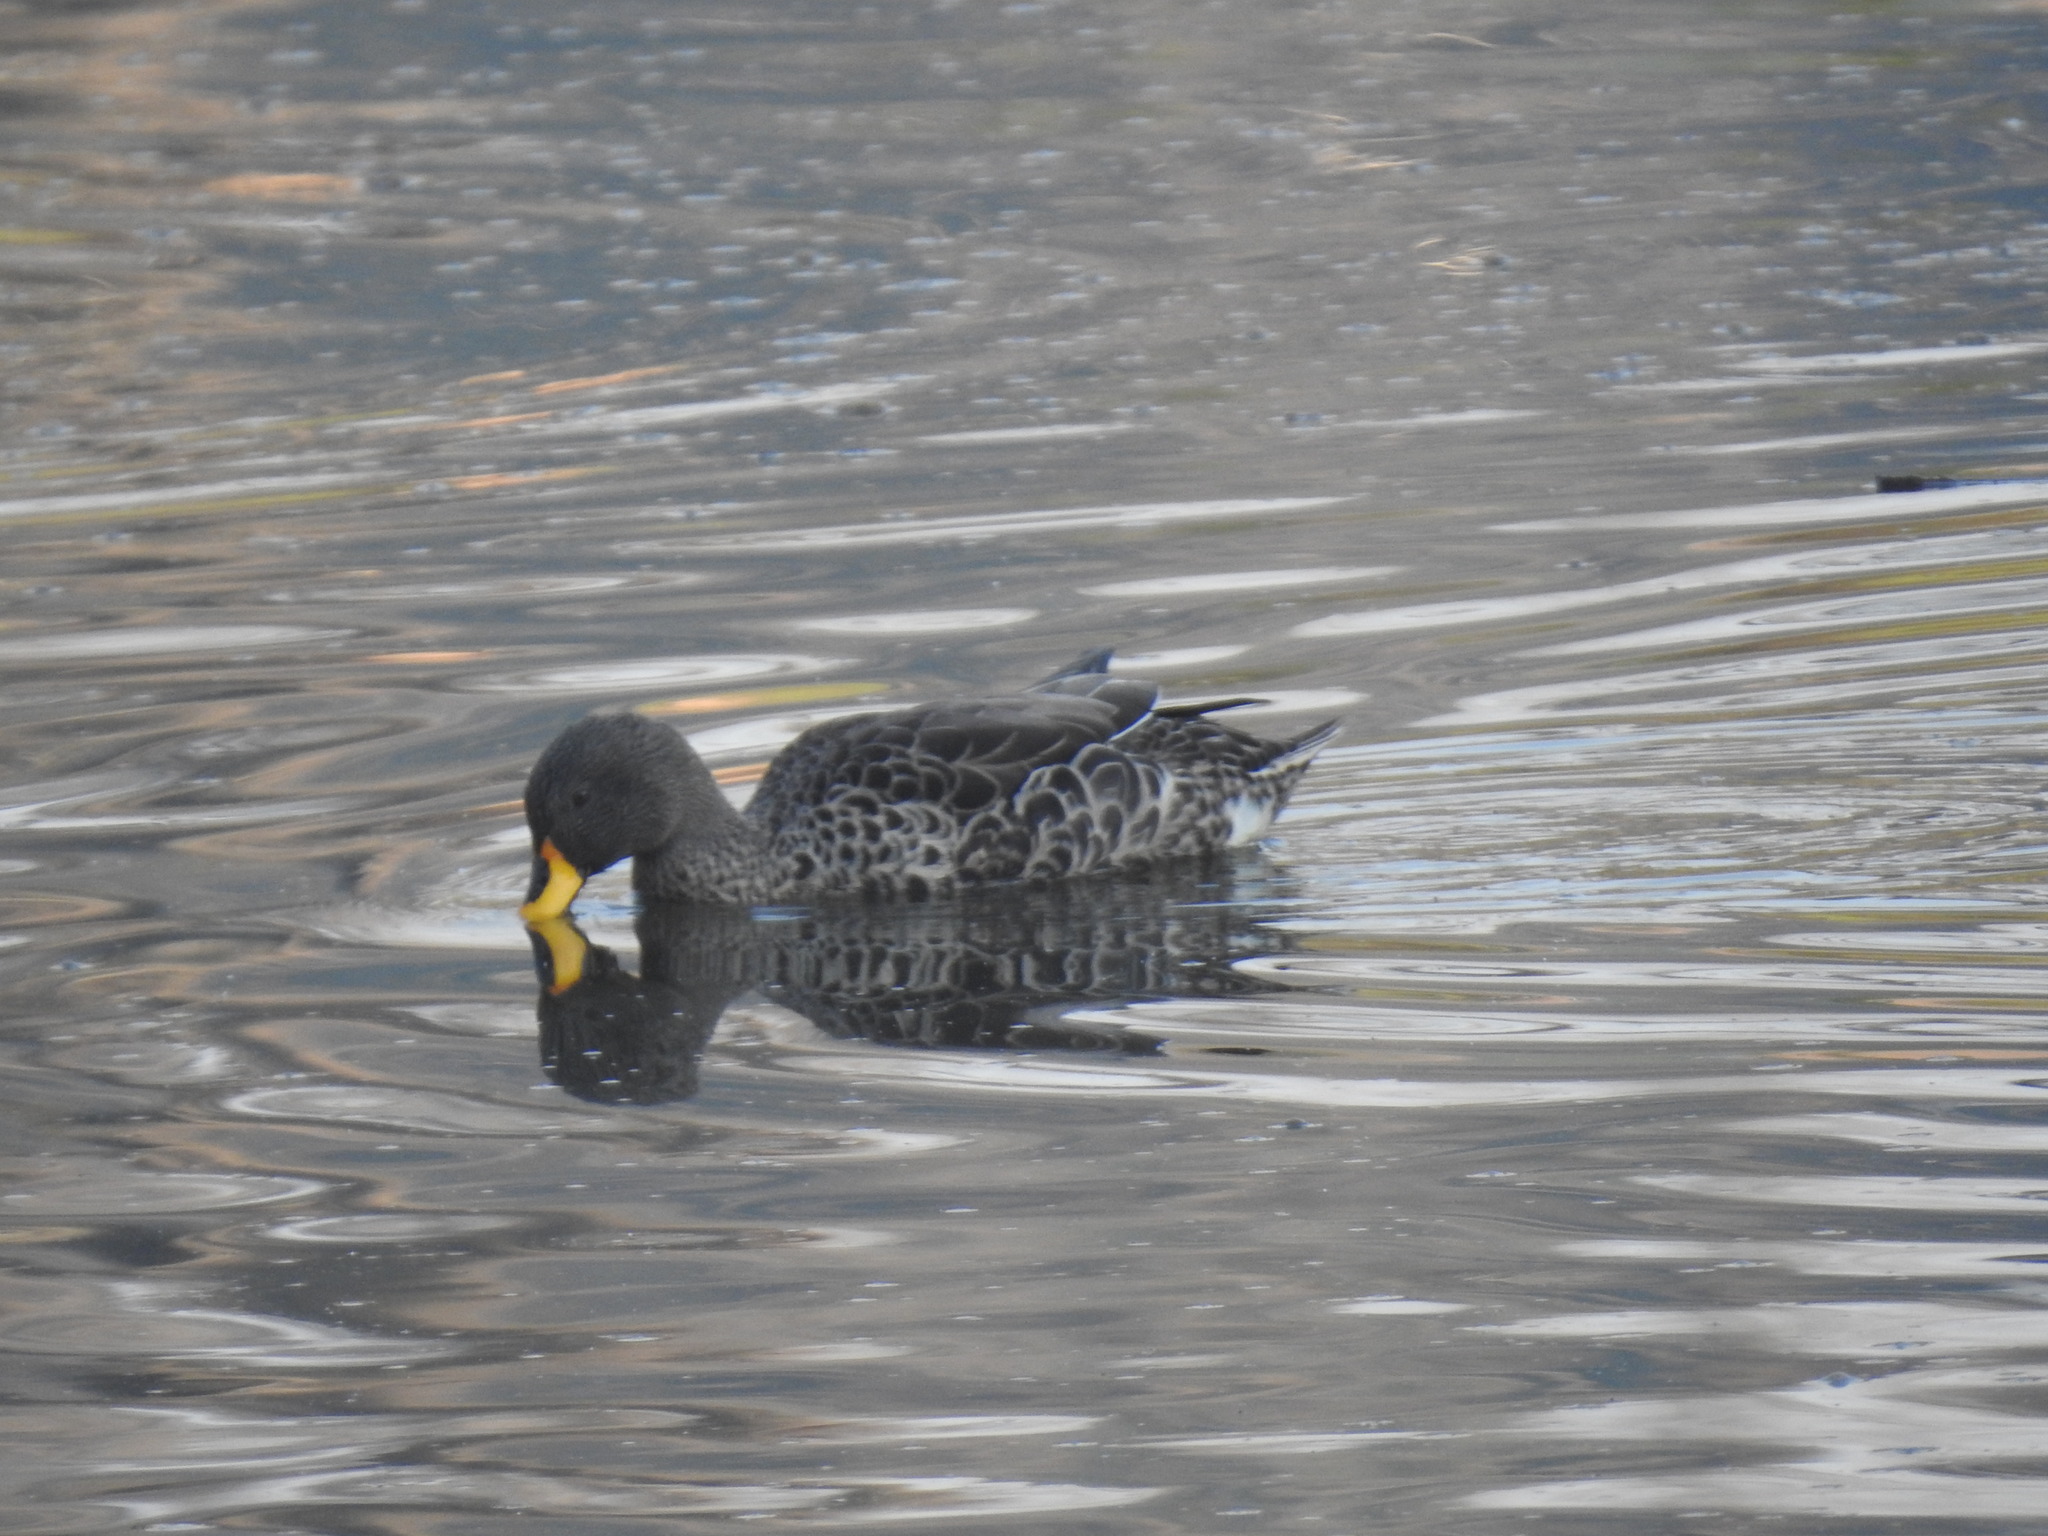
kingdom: Animalia
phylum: Chordata
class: Aves
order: Anseriformes
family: Anatidae
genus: Anas
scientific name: Anas undulata
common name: Yellow-billed duck
